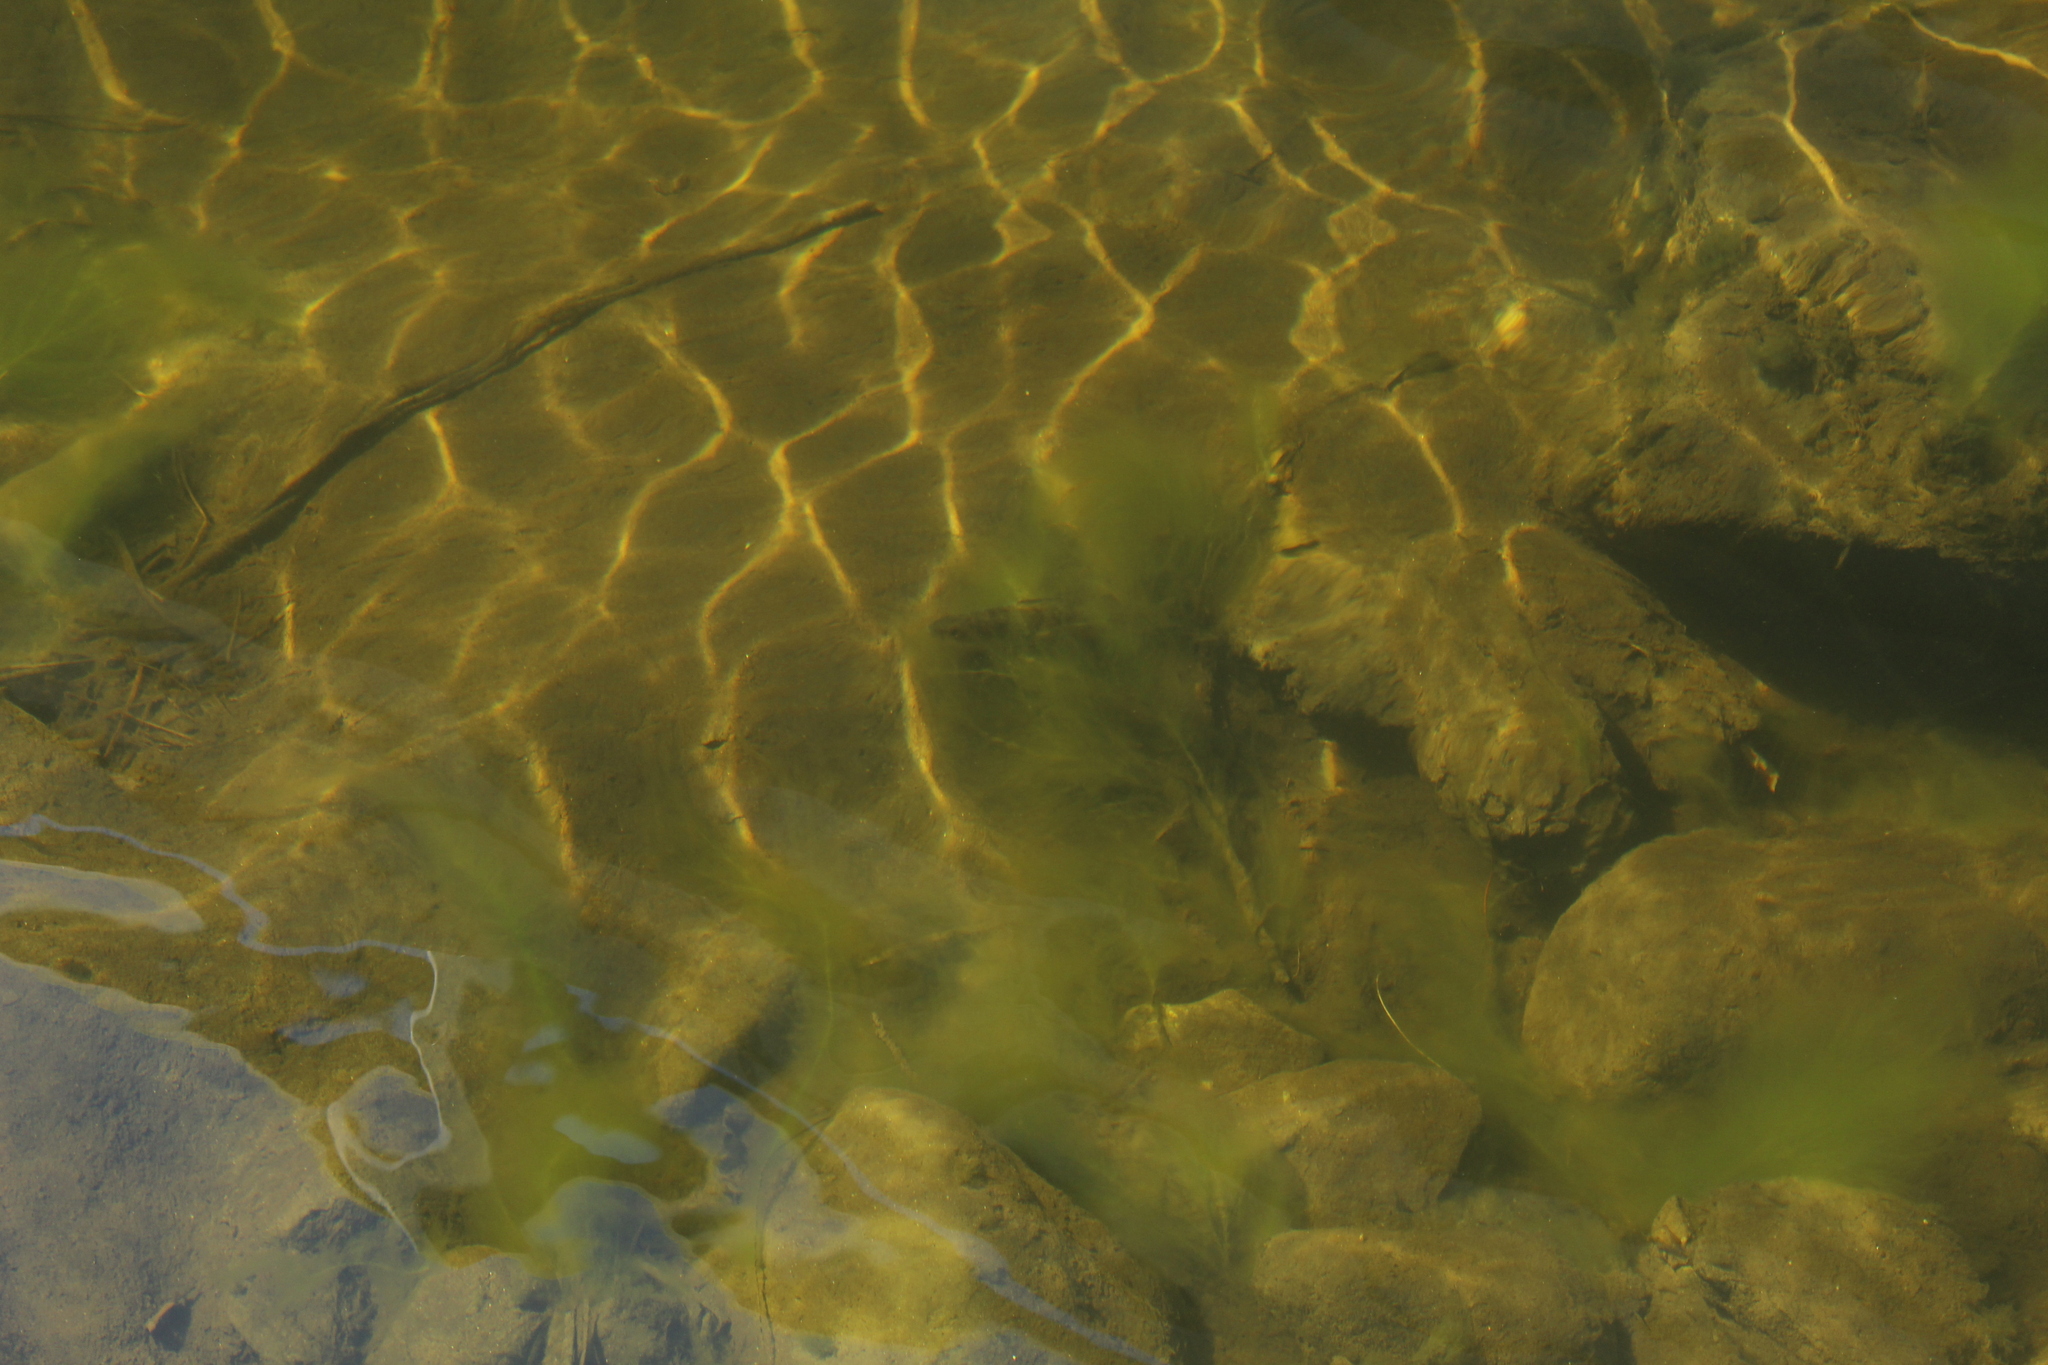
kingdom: Animalia
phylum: Chordata
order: Perciformes
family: Percidae
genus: Perca
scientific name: Perca flavescens
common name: Yellow perch
